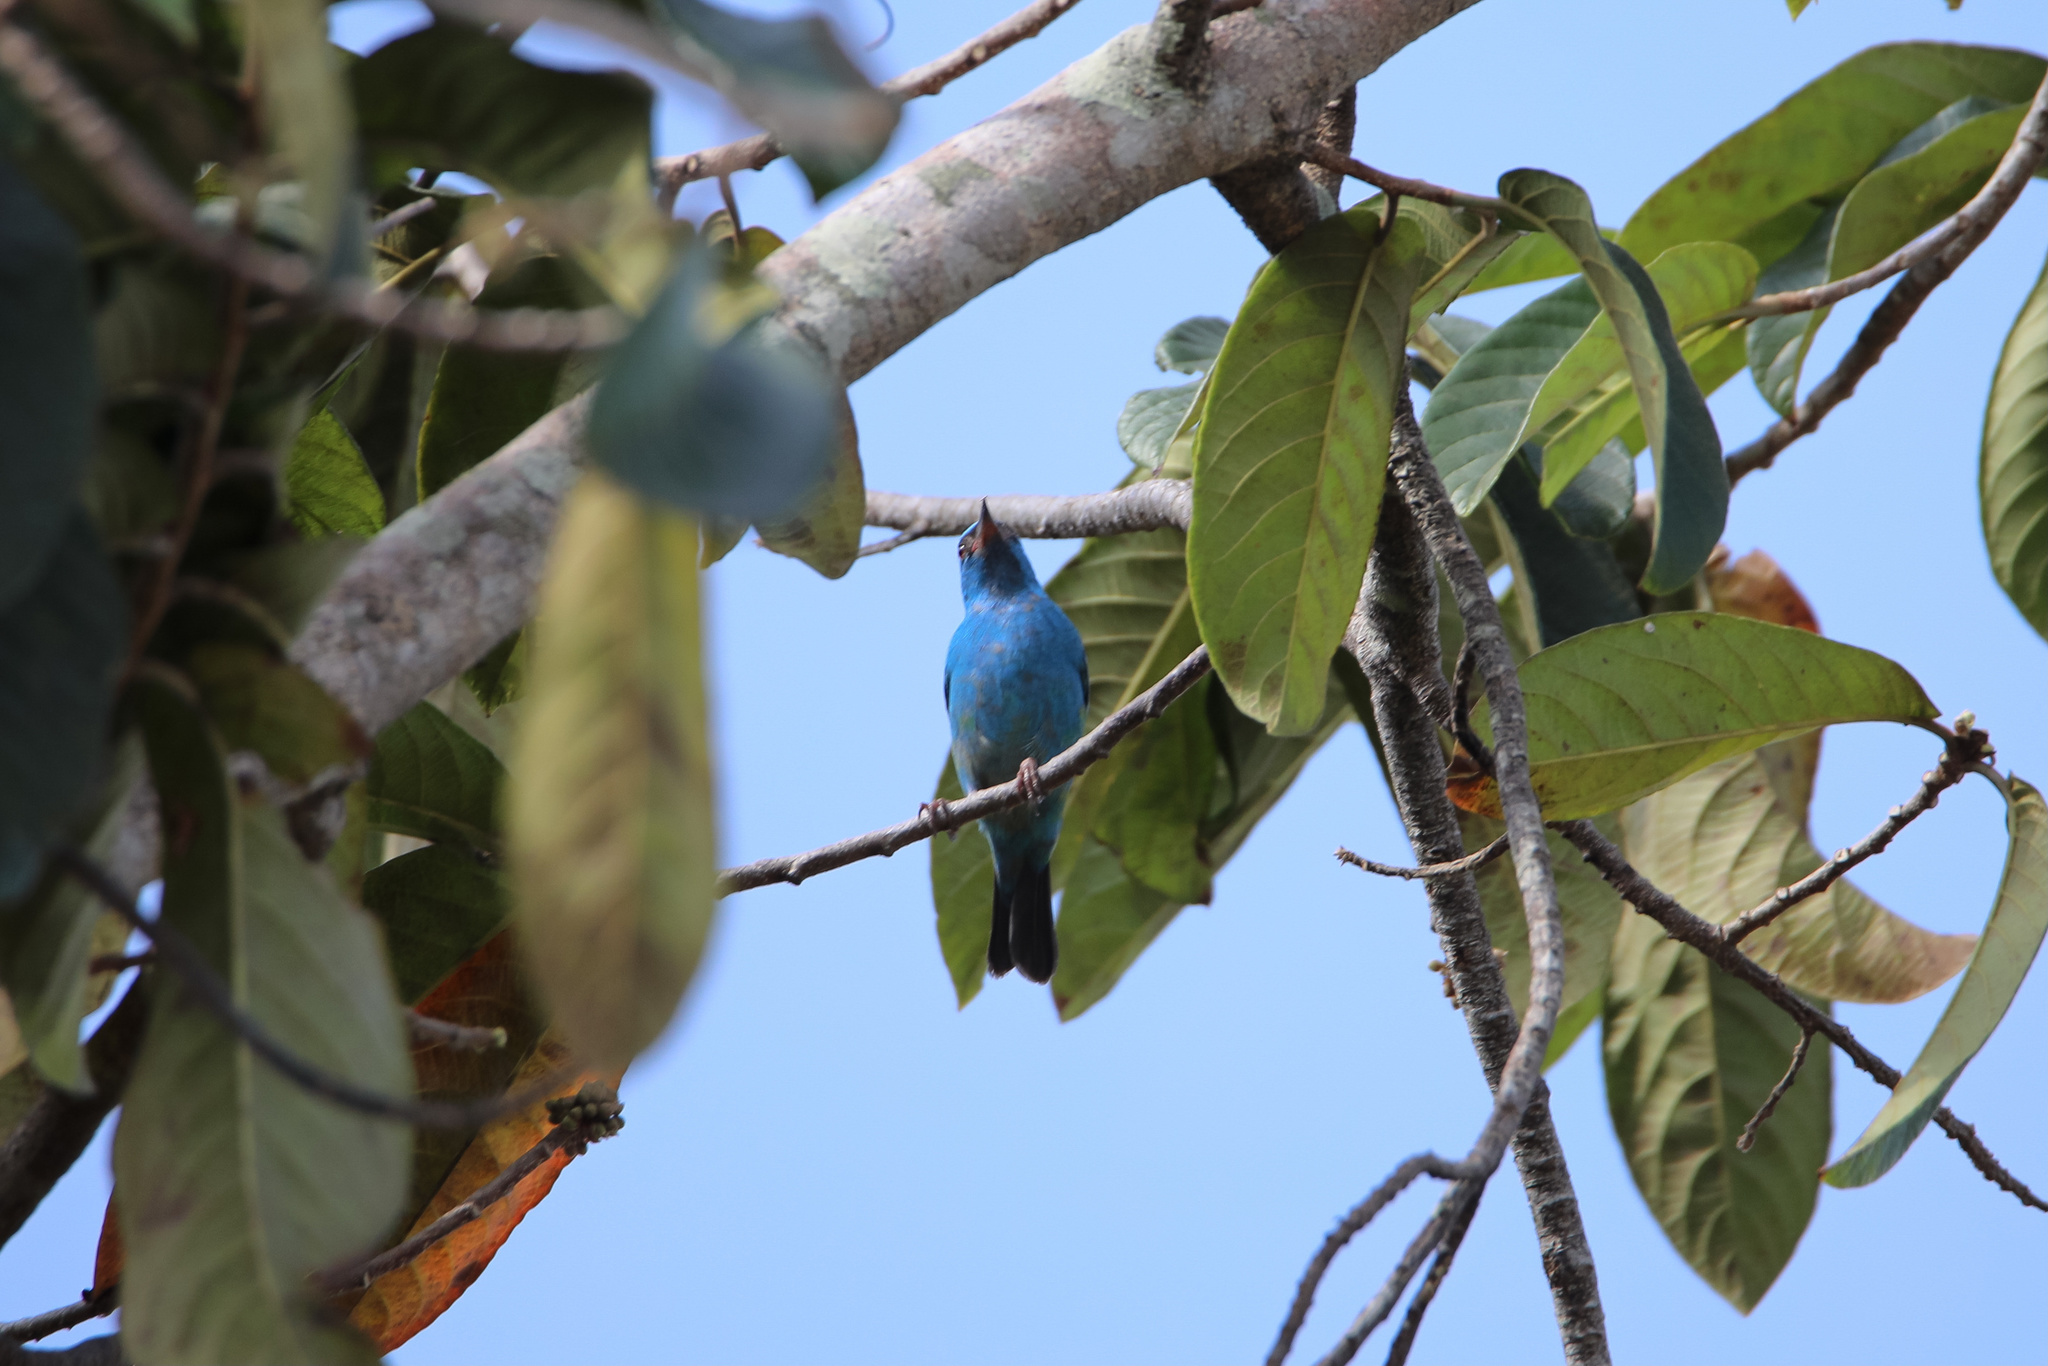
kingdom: Animalia
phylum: Chordata
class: Aves
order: Passeriformes
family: Thraupidae
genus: Dacnis
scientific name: Dacnis cayana
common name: Blue dacnis
